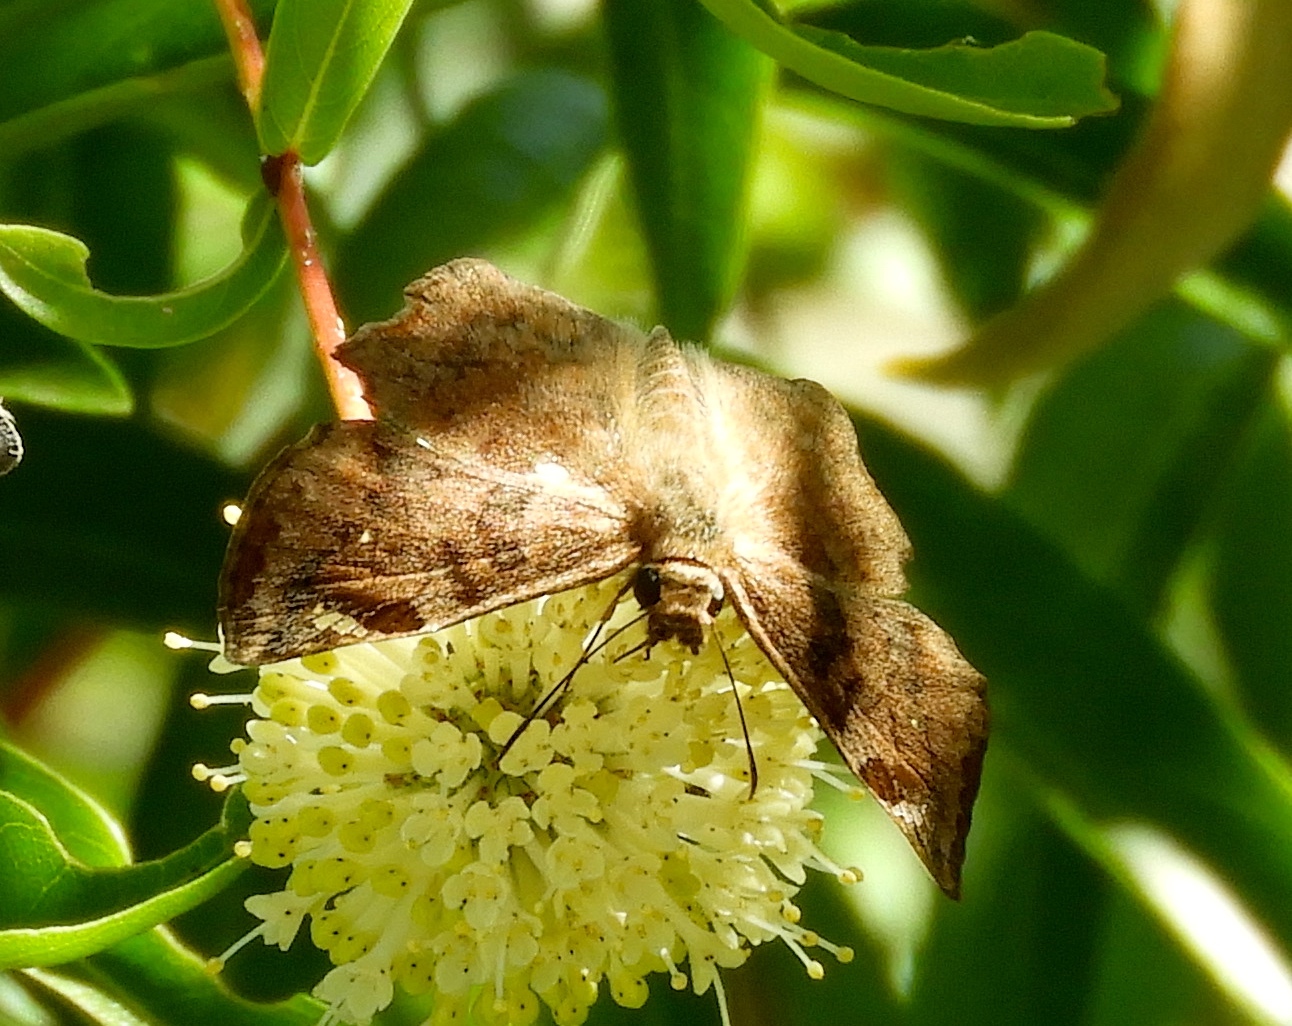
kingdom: Animalia
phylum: Arthropoda
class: Insecta
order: Lepidoptera
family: Hesperiidae
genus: Antigonus
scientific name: Antigonus erosus
